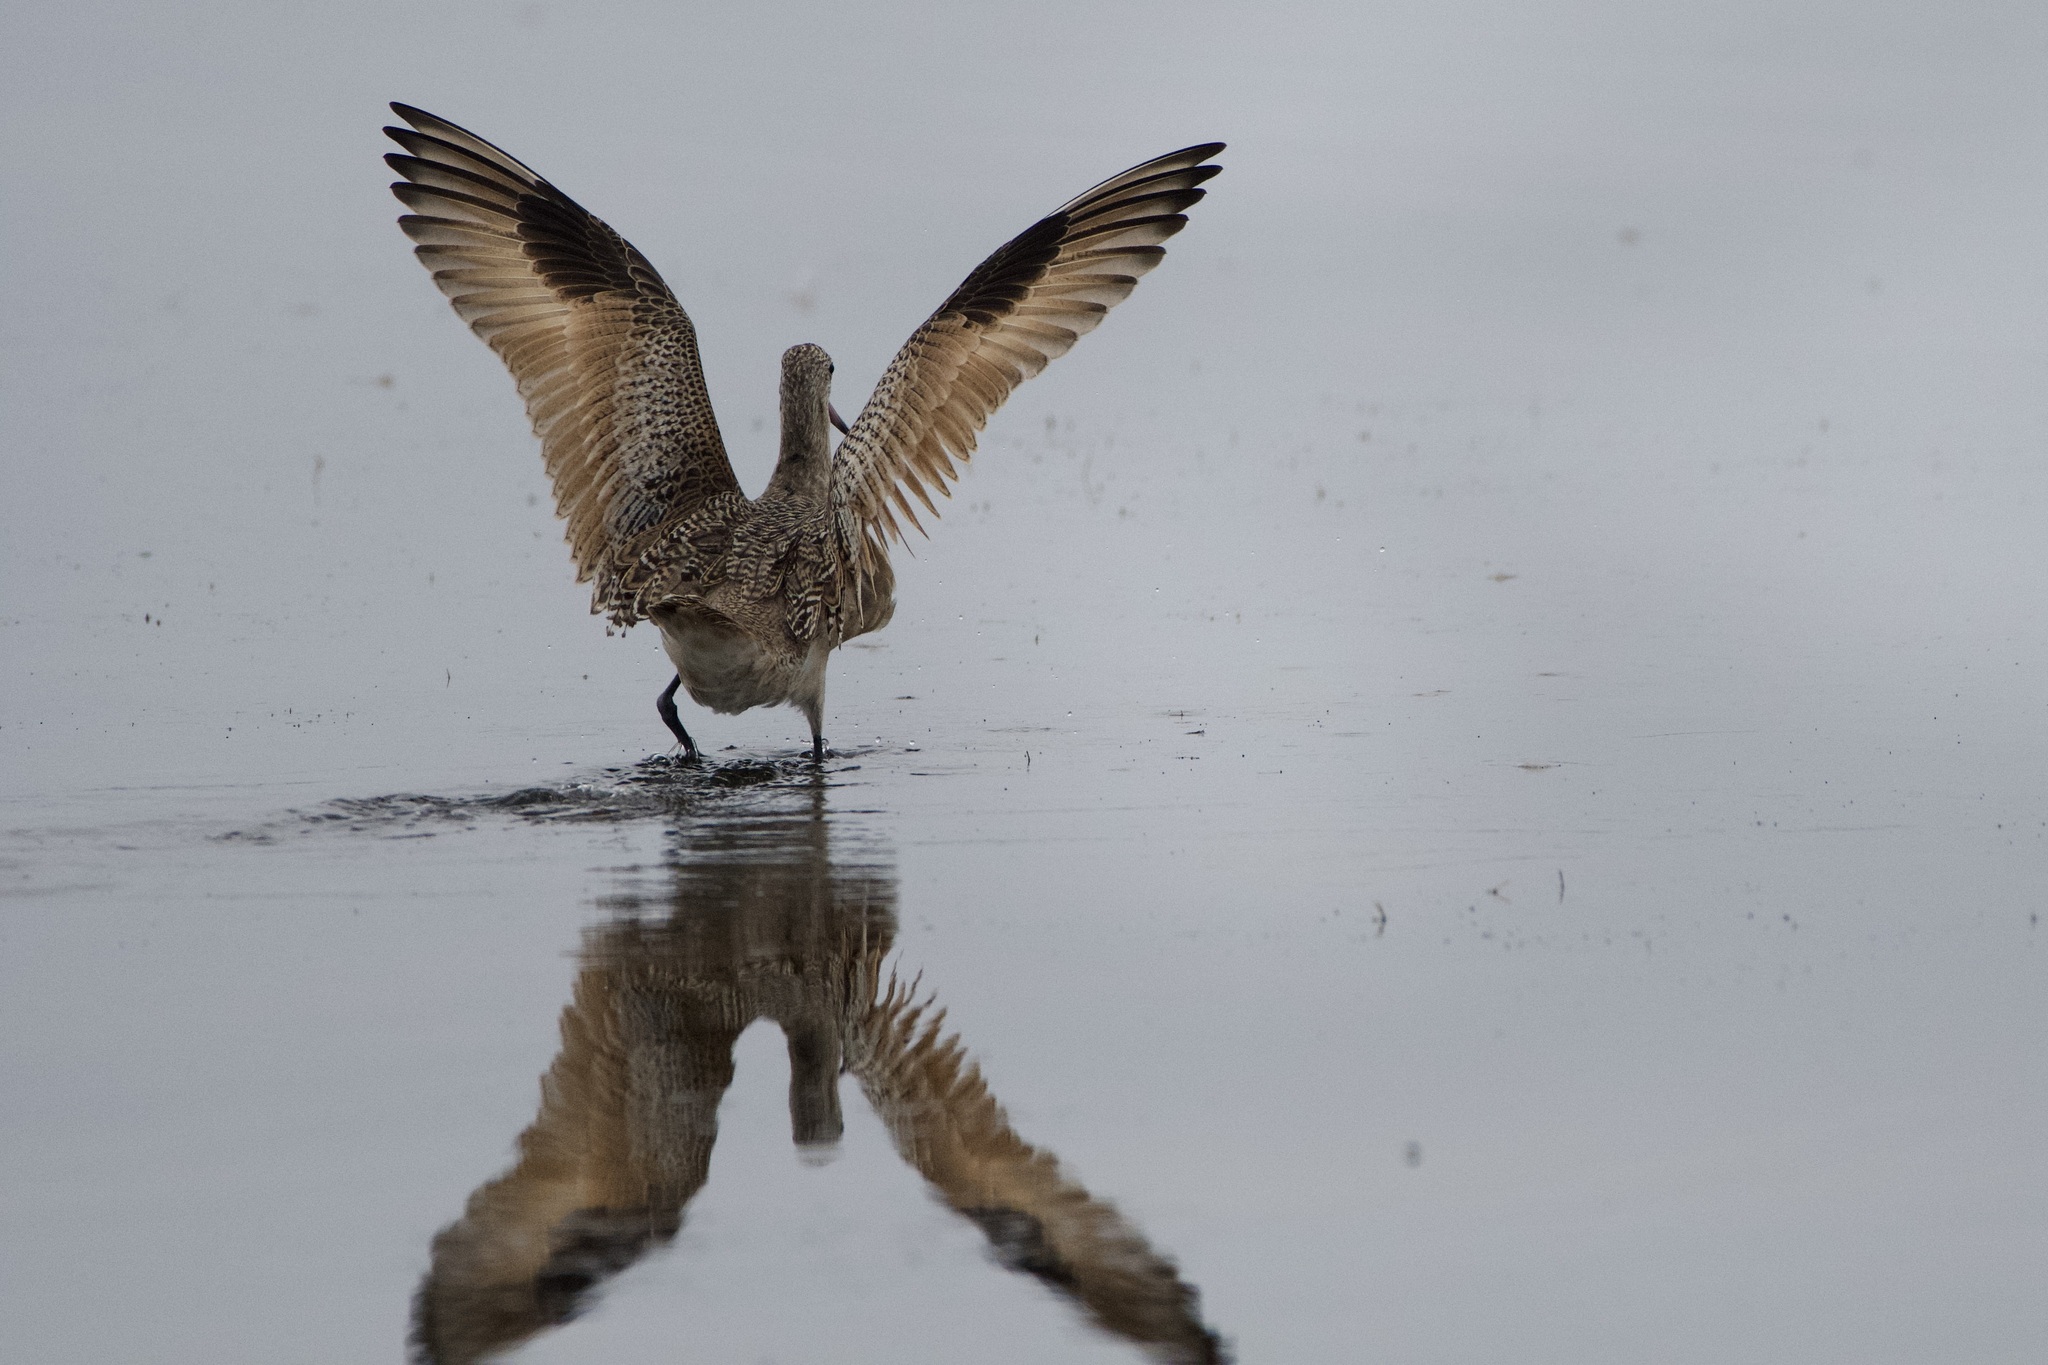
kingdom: Animalia
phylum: Chordata
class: Aves
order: Charadriiformes
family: Scolopacidae
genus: Limosa
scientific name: Limosa fedoa
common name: Marbled godwit
